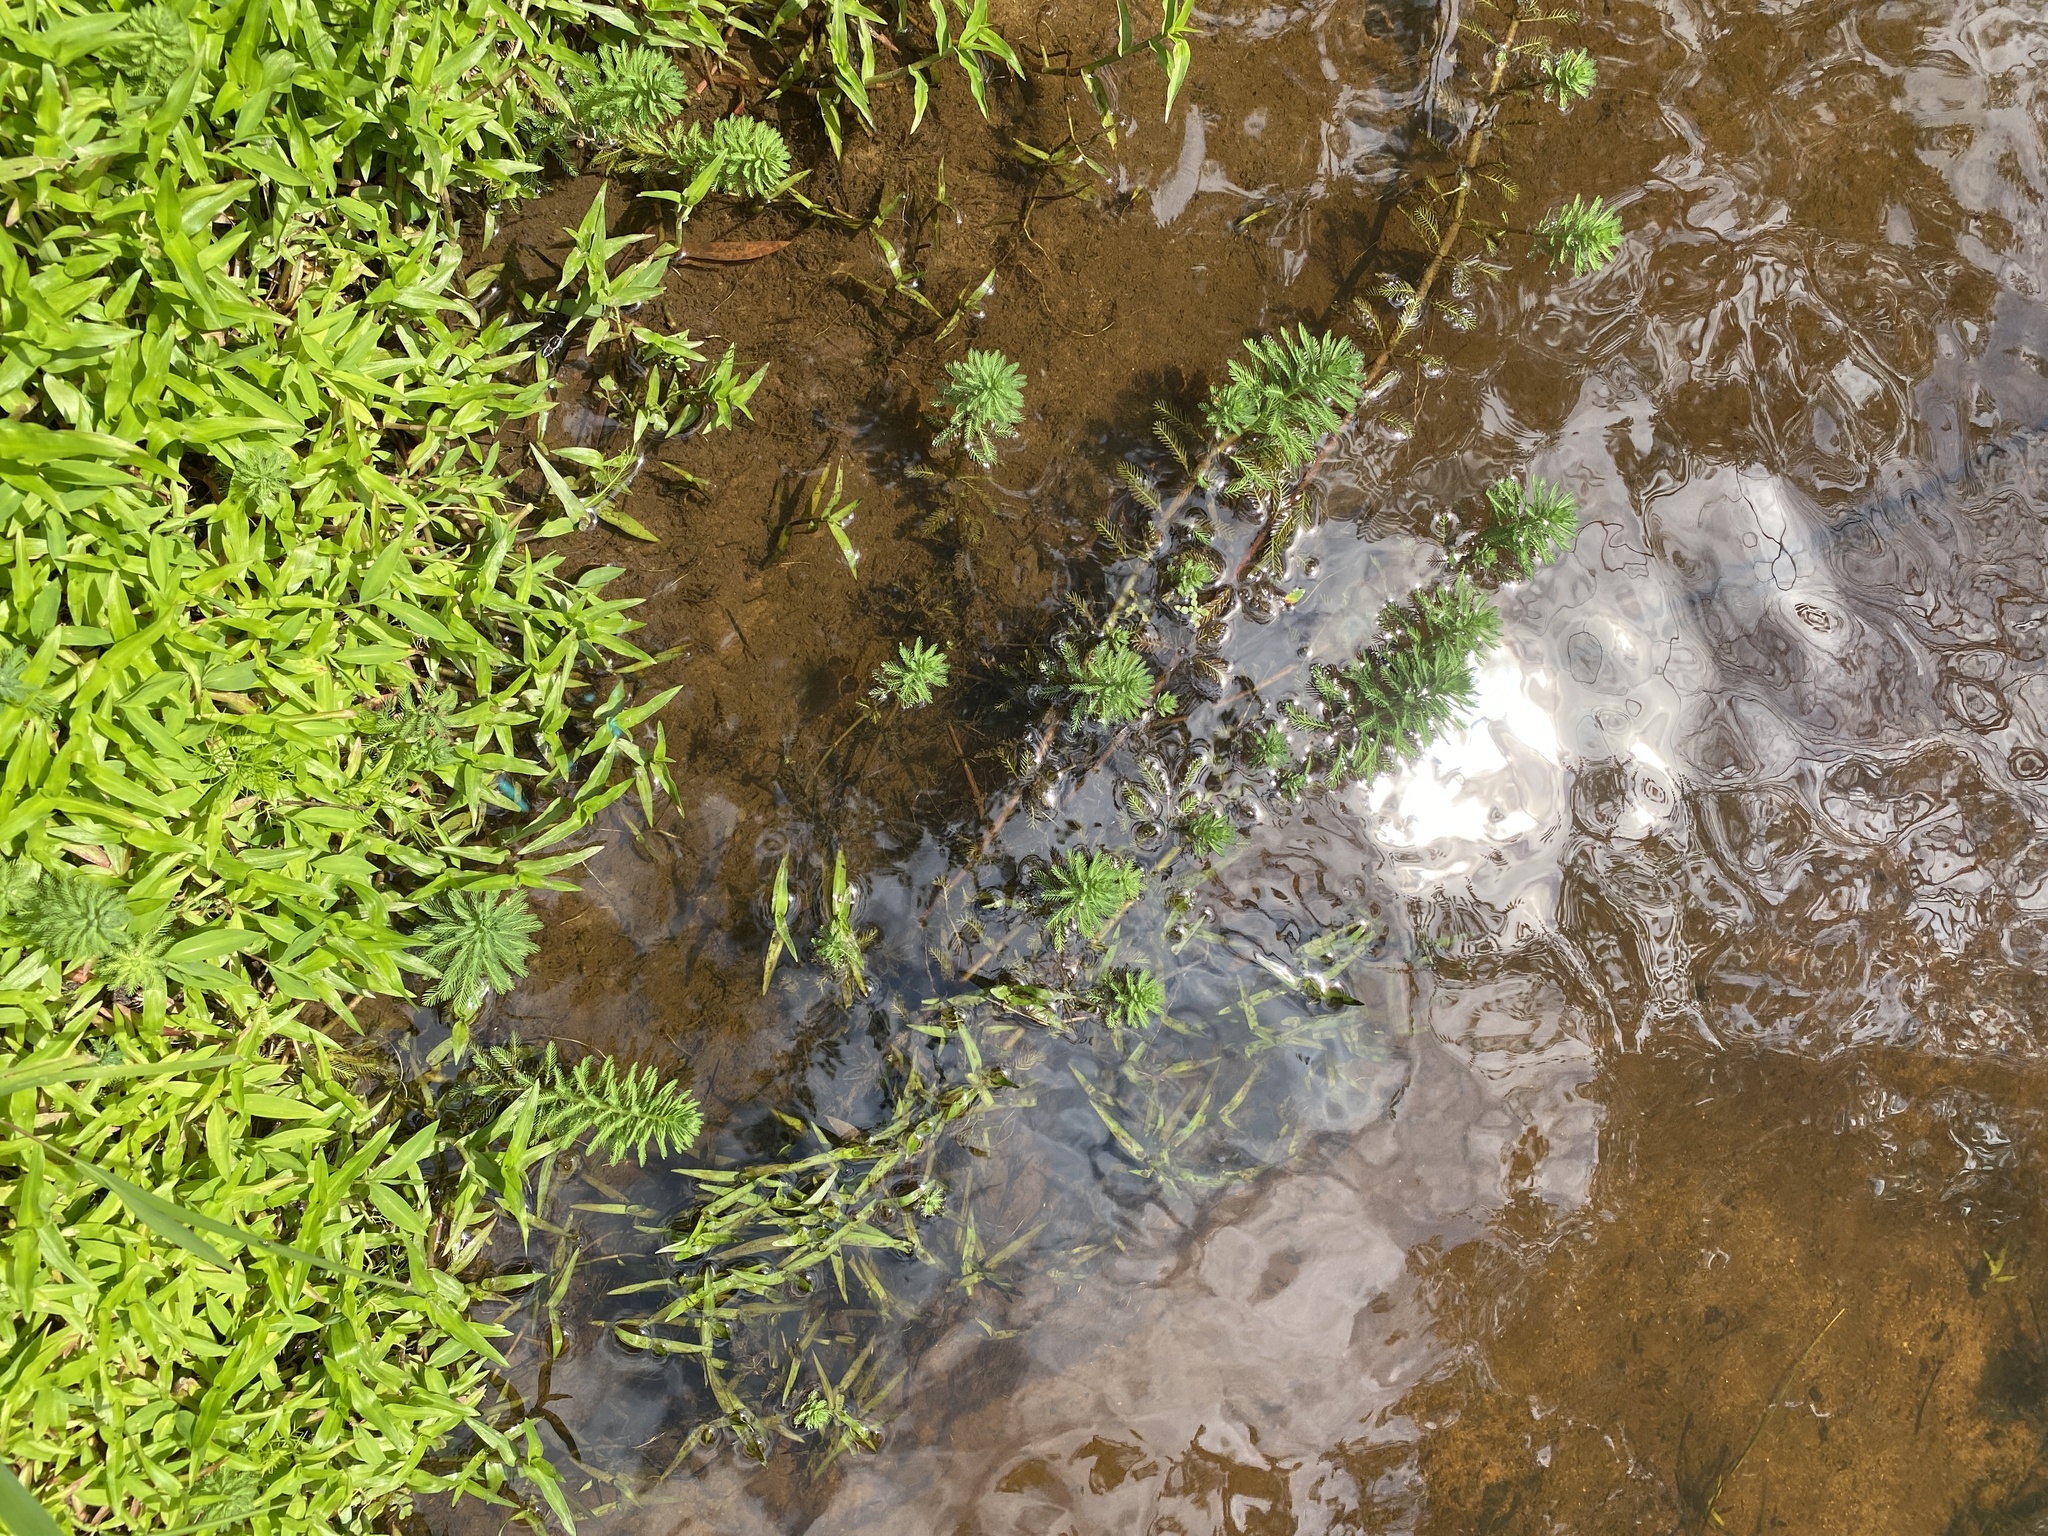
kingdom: Plantae
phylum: Tracheophyta
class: Magnoliopsida
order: Saxifragales
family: Haloragaceae
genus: Myriophyllum
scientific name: Myriophyllum aquaticum
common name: Parrot's feather
